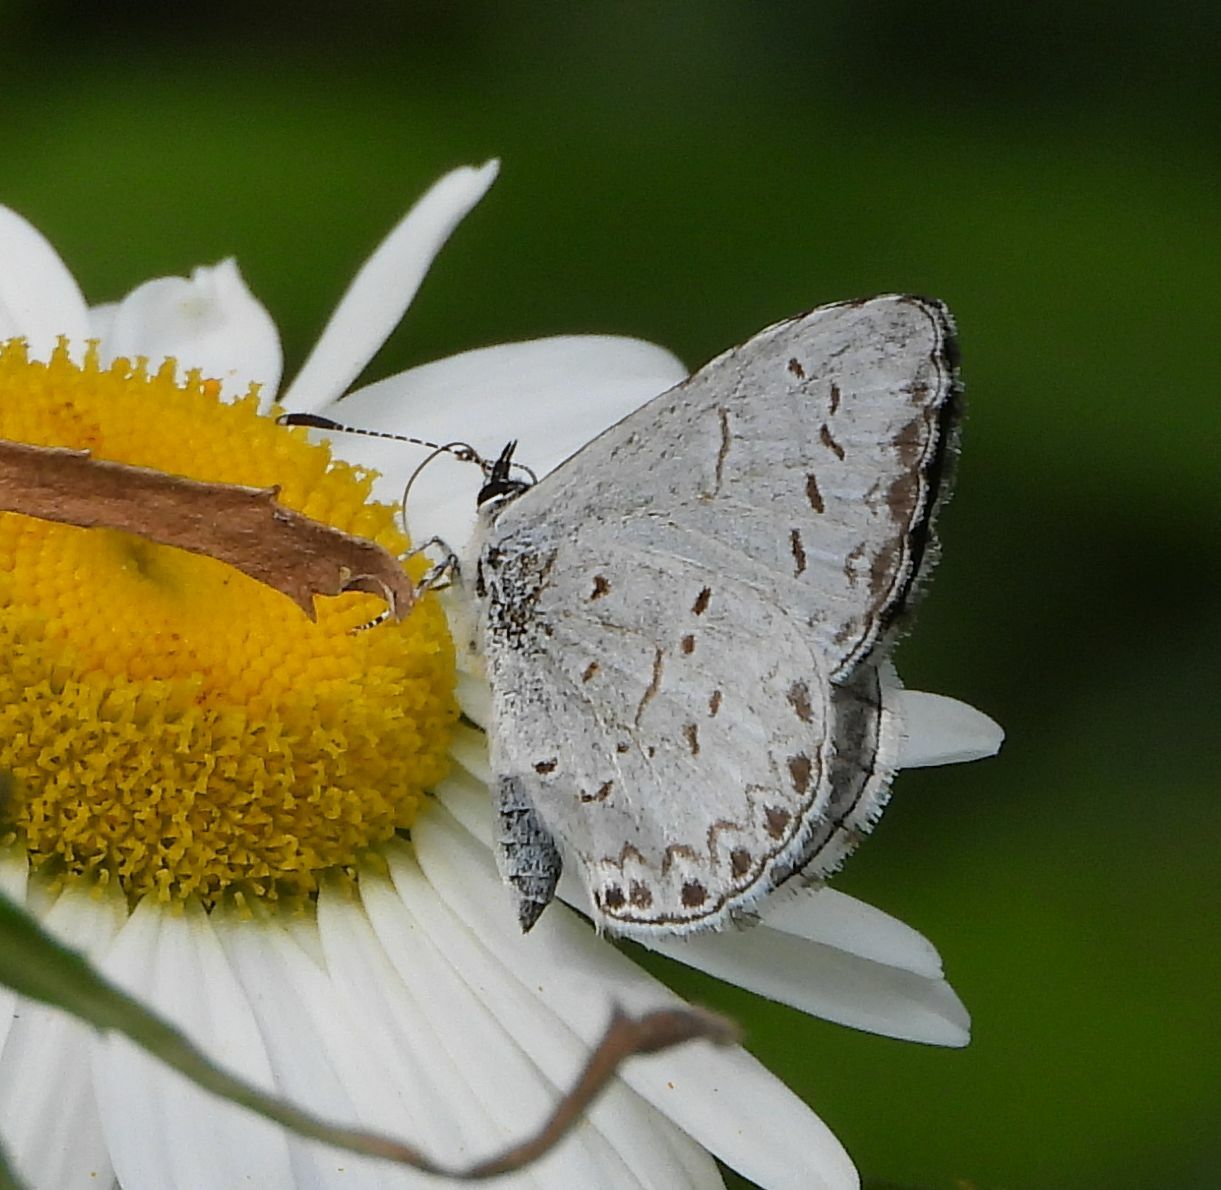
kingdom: Animalia
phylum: Arthropoda
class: Insecta
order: Lepidoptera
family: Lycaenidae
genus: Celastrina
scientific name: Celastrina lucia
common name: Lucia azure
